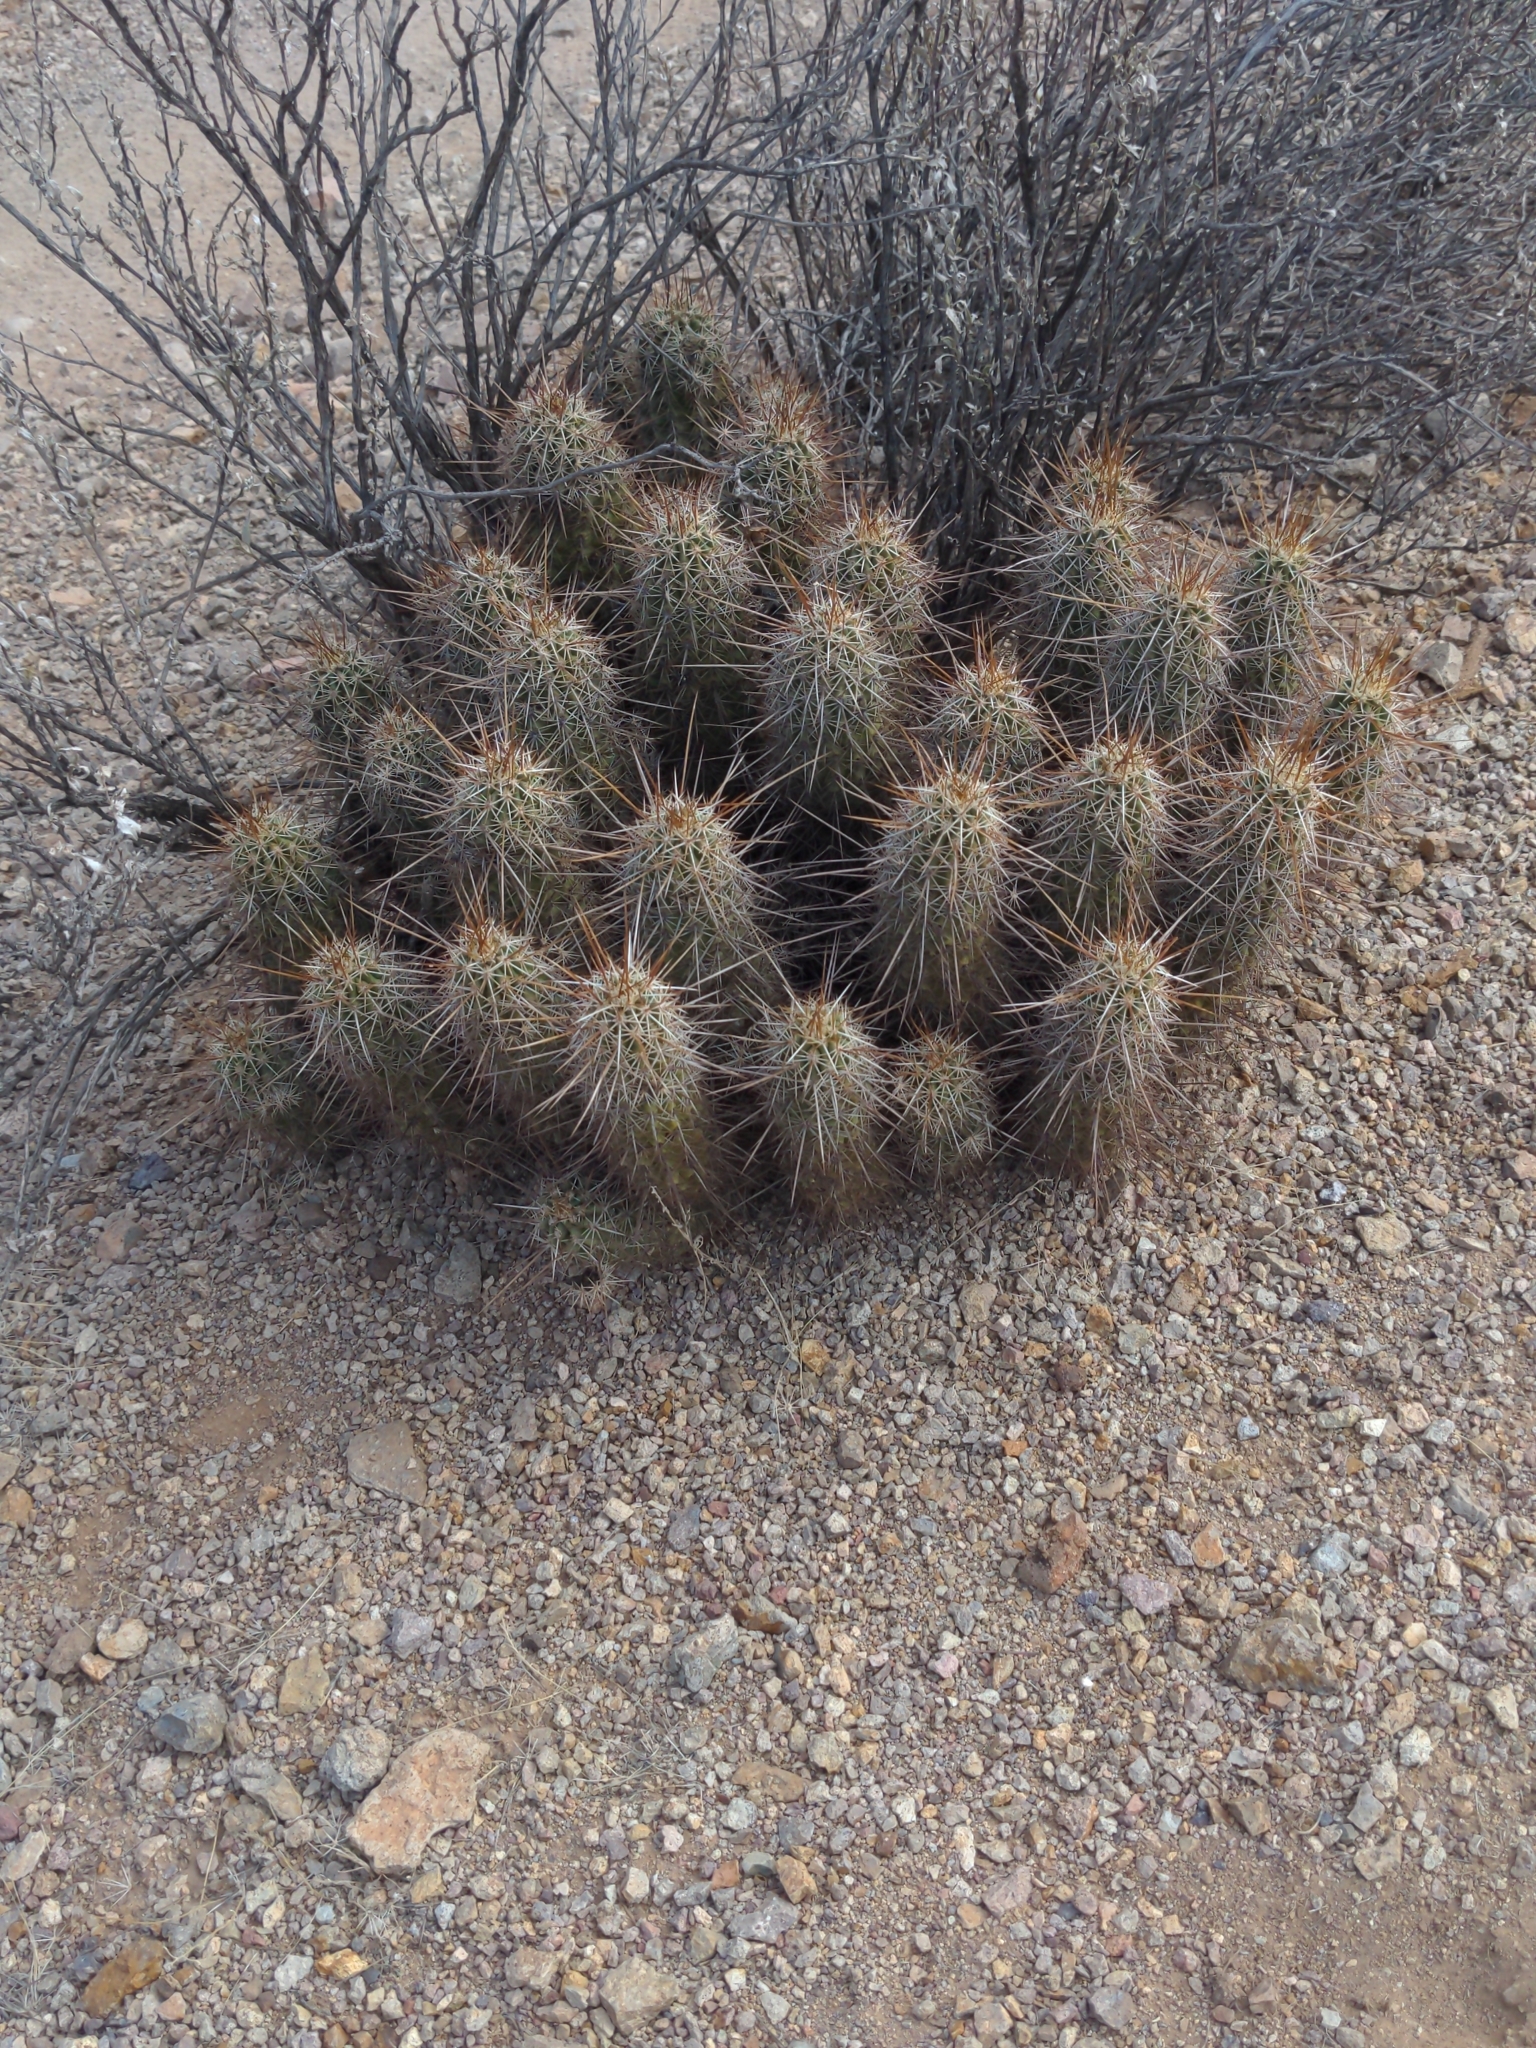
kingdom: Plantae
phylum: Tracheophyta
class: Magnoliopsida
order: Caryophyllales
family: Cactaceae
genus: Echinocereus
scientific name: Echinocereus engelmannii
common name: Engelmann's hedgehog cactus
